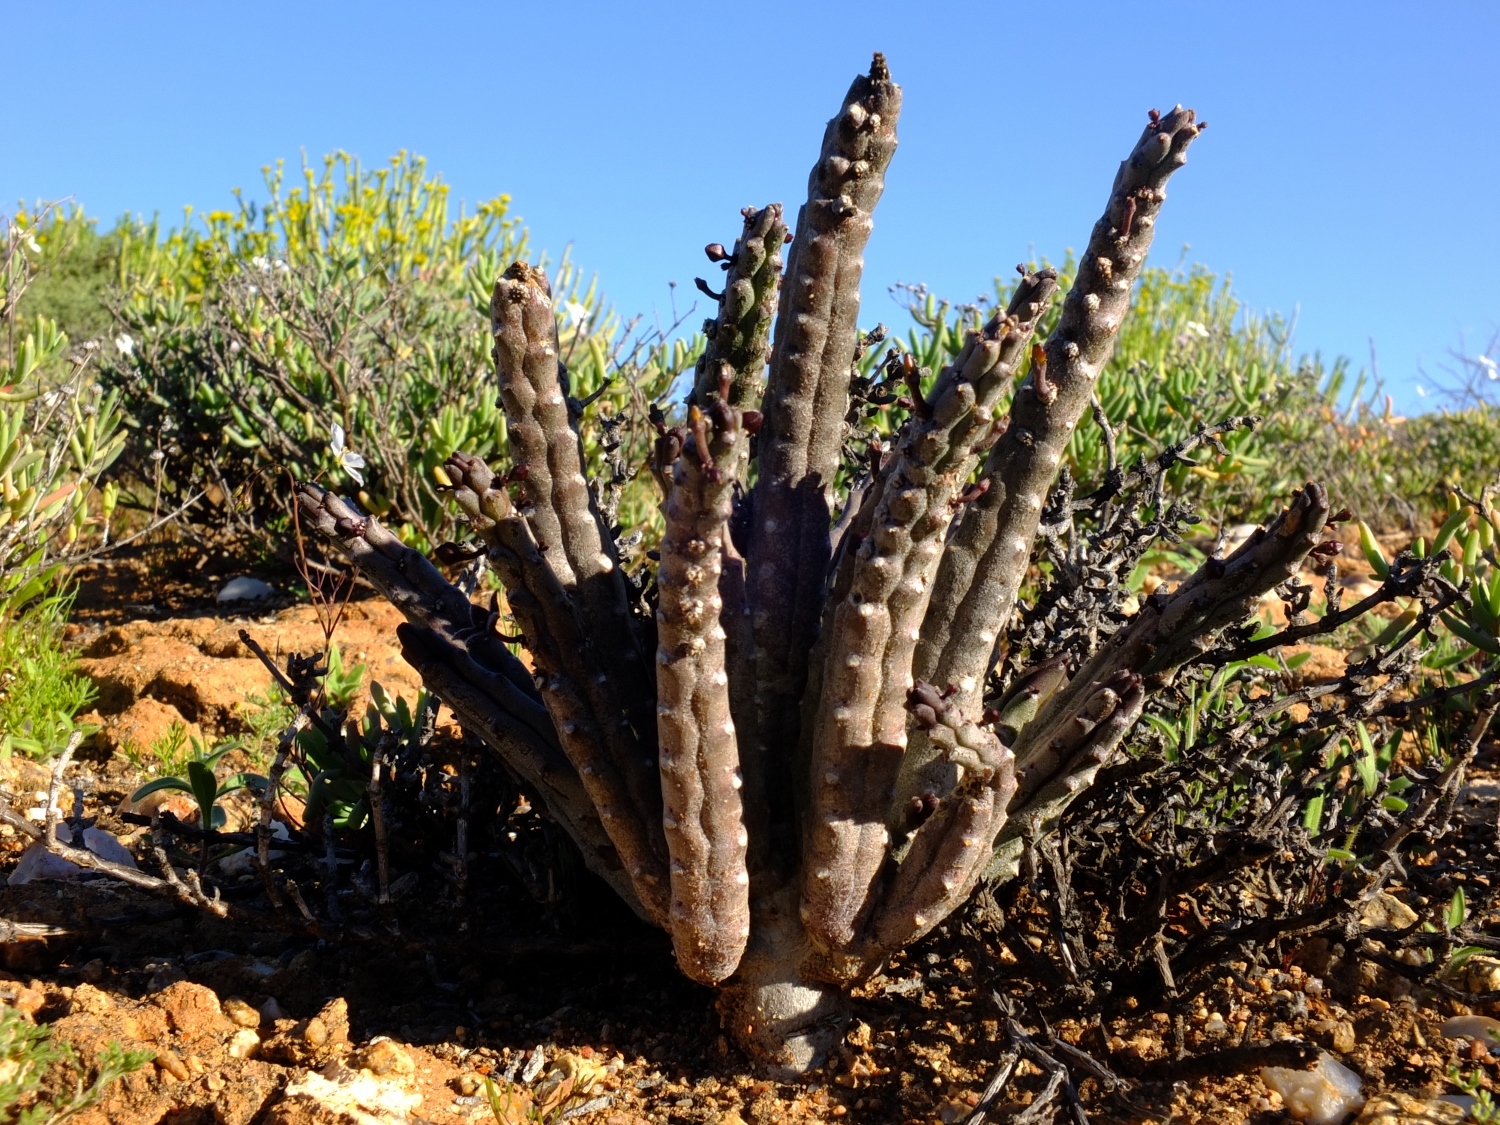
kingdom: Plantae
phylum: Tracheophyta
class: Magnoliopsida
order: Gentianales
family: Apocynaceae
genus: Ceropegia
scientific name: Ceropegia pruinosa
